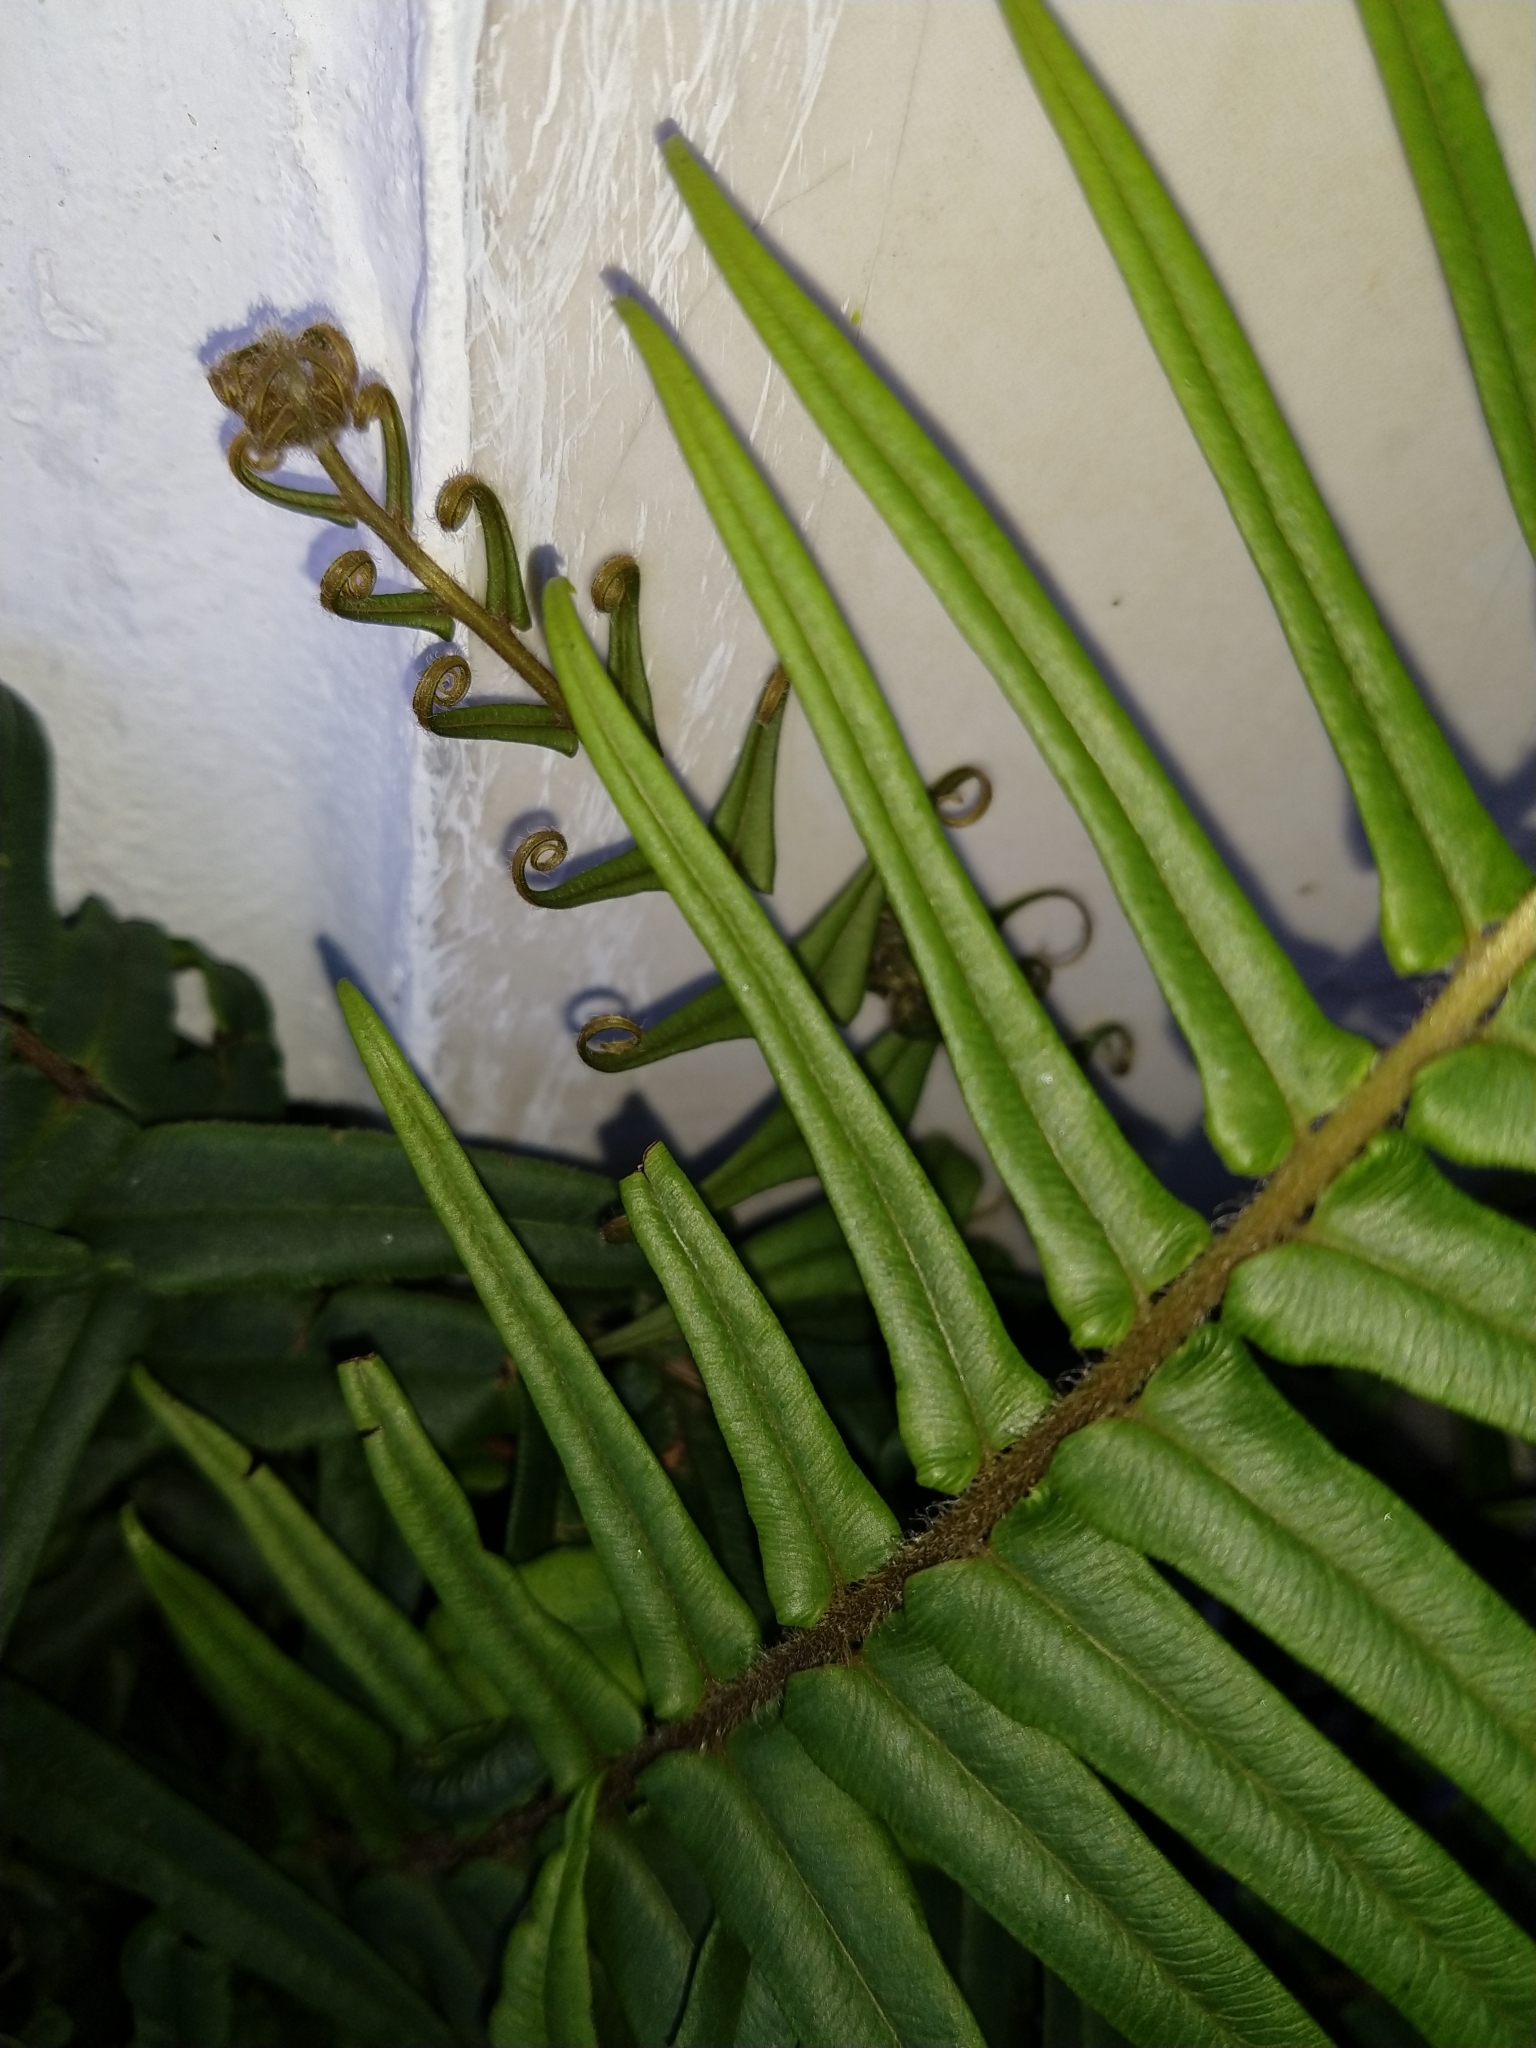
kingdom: Plantae
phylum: Tracheophyta
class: Polypodiopsida
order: Polypodiales
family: Pteridaceae
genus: Pteris
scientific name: Pteris vittata
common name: Ladder brake
